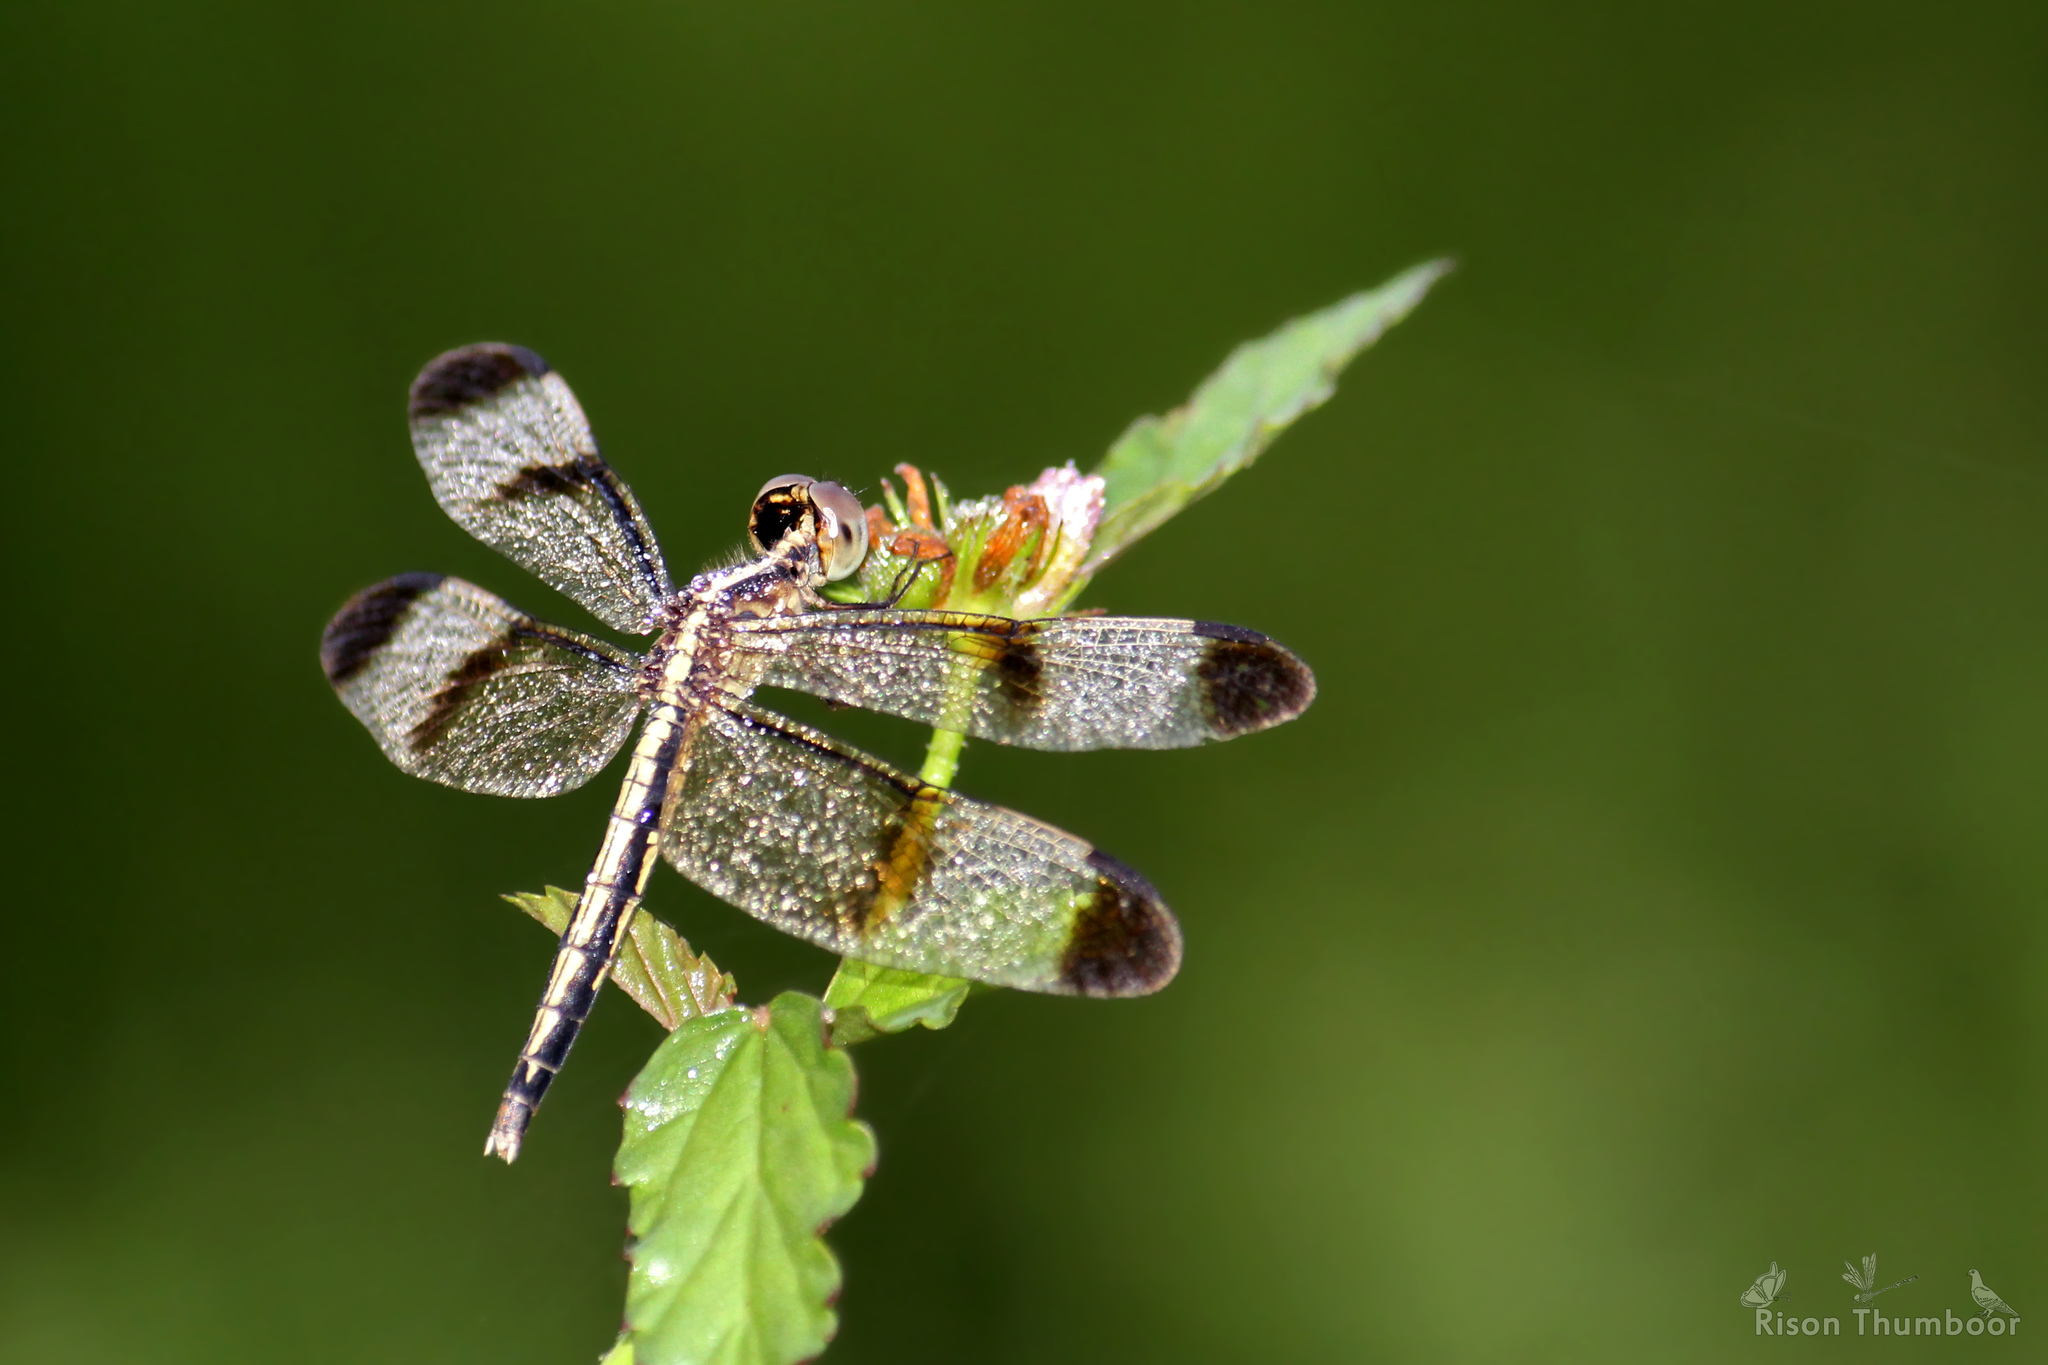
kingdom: Animalia
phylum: Arthropoda
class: Insecta
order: Odonata
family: Libellulidae
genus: Neurothemis
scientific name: Neurothemis tullia
